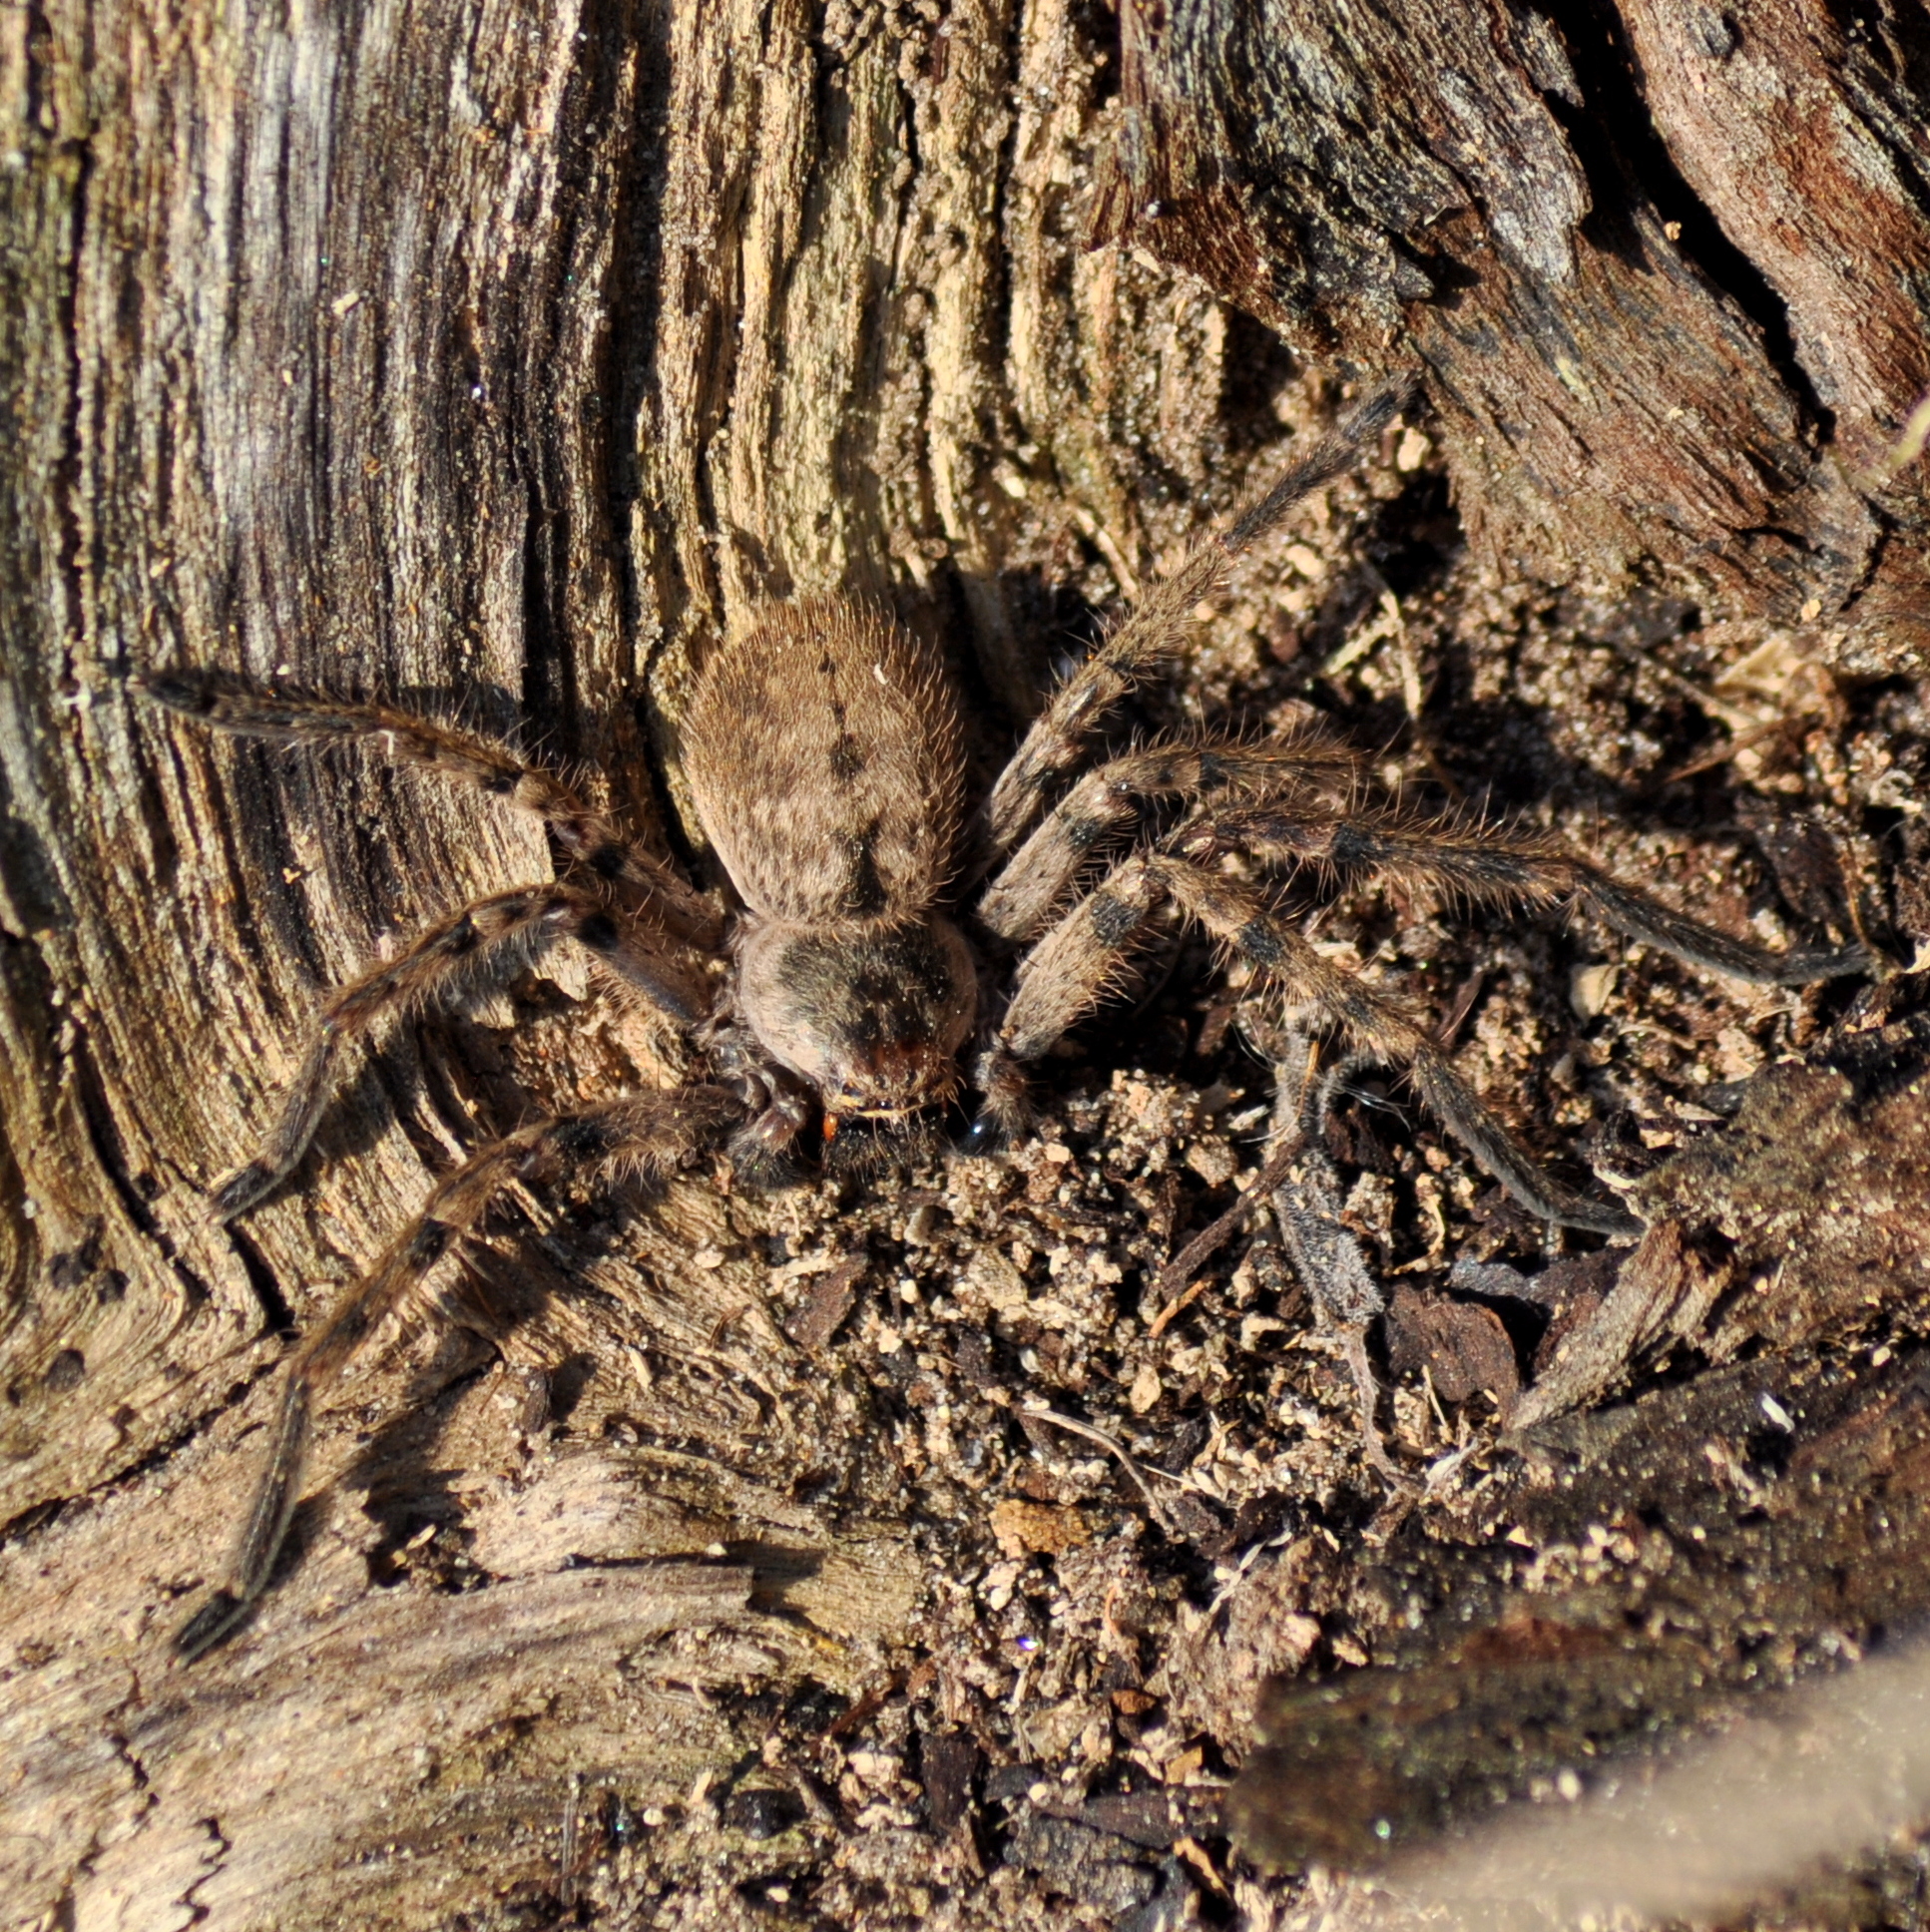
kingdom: Animalia
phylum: Arthropoda
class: Arachnida
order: Araneae
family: Sparassidae
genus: Polybetes
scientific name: Polybetes pythagoricus
